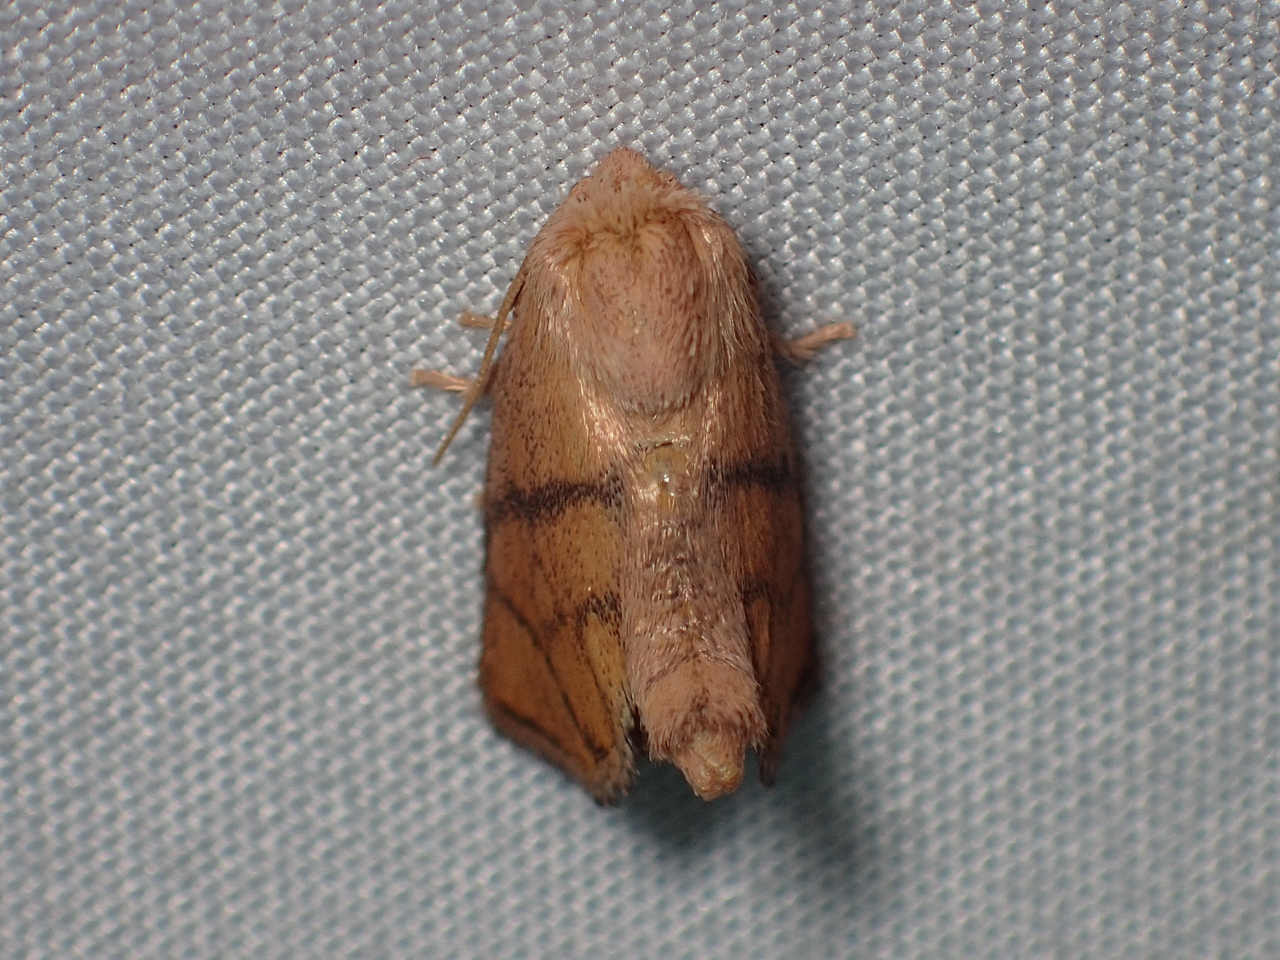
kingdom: Animalia
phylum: Arthropoda
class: Insecta
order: Lepidoptera
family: Limacodidae
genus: Apoda
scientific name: Apoda y-inversa
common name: Yellow-collared slug moth
